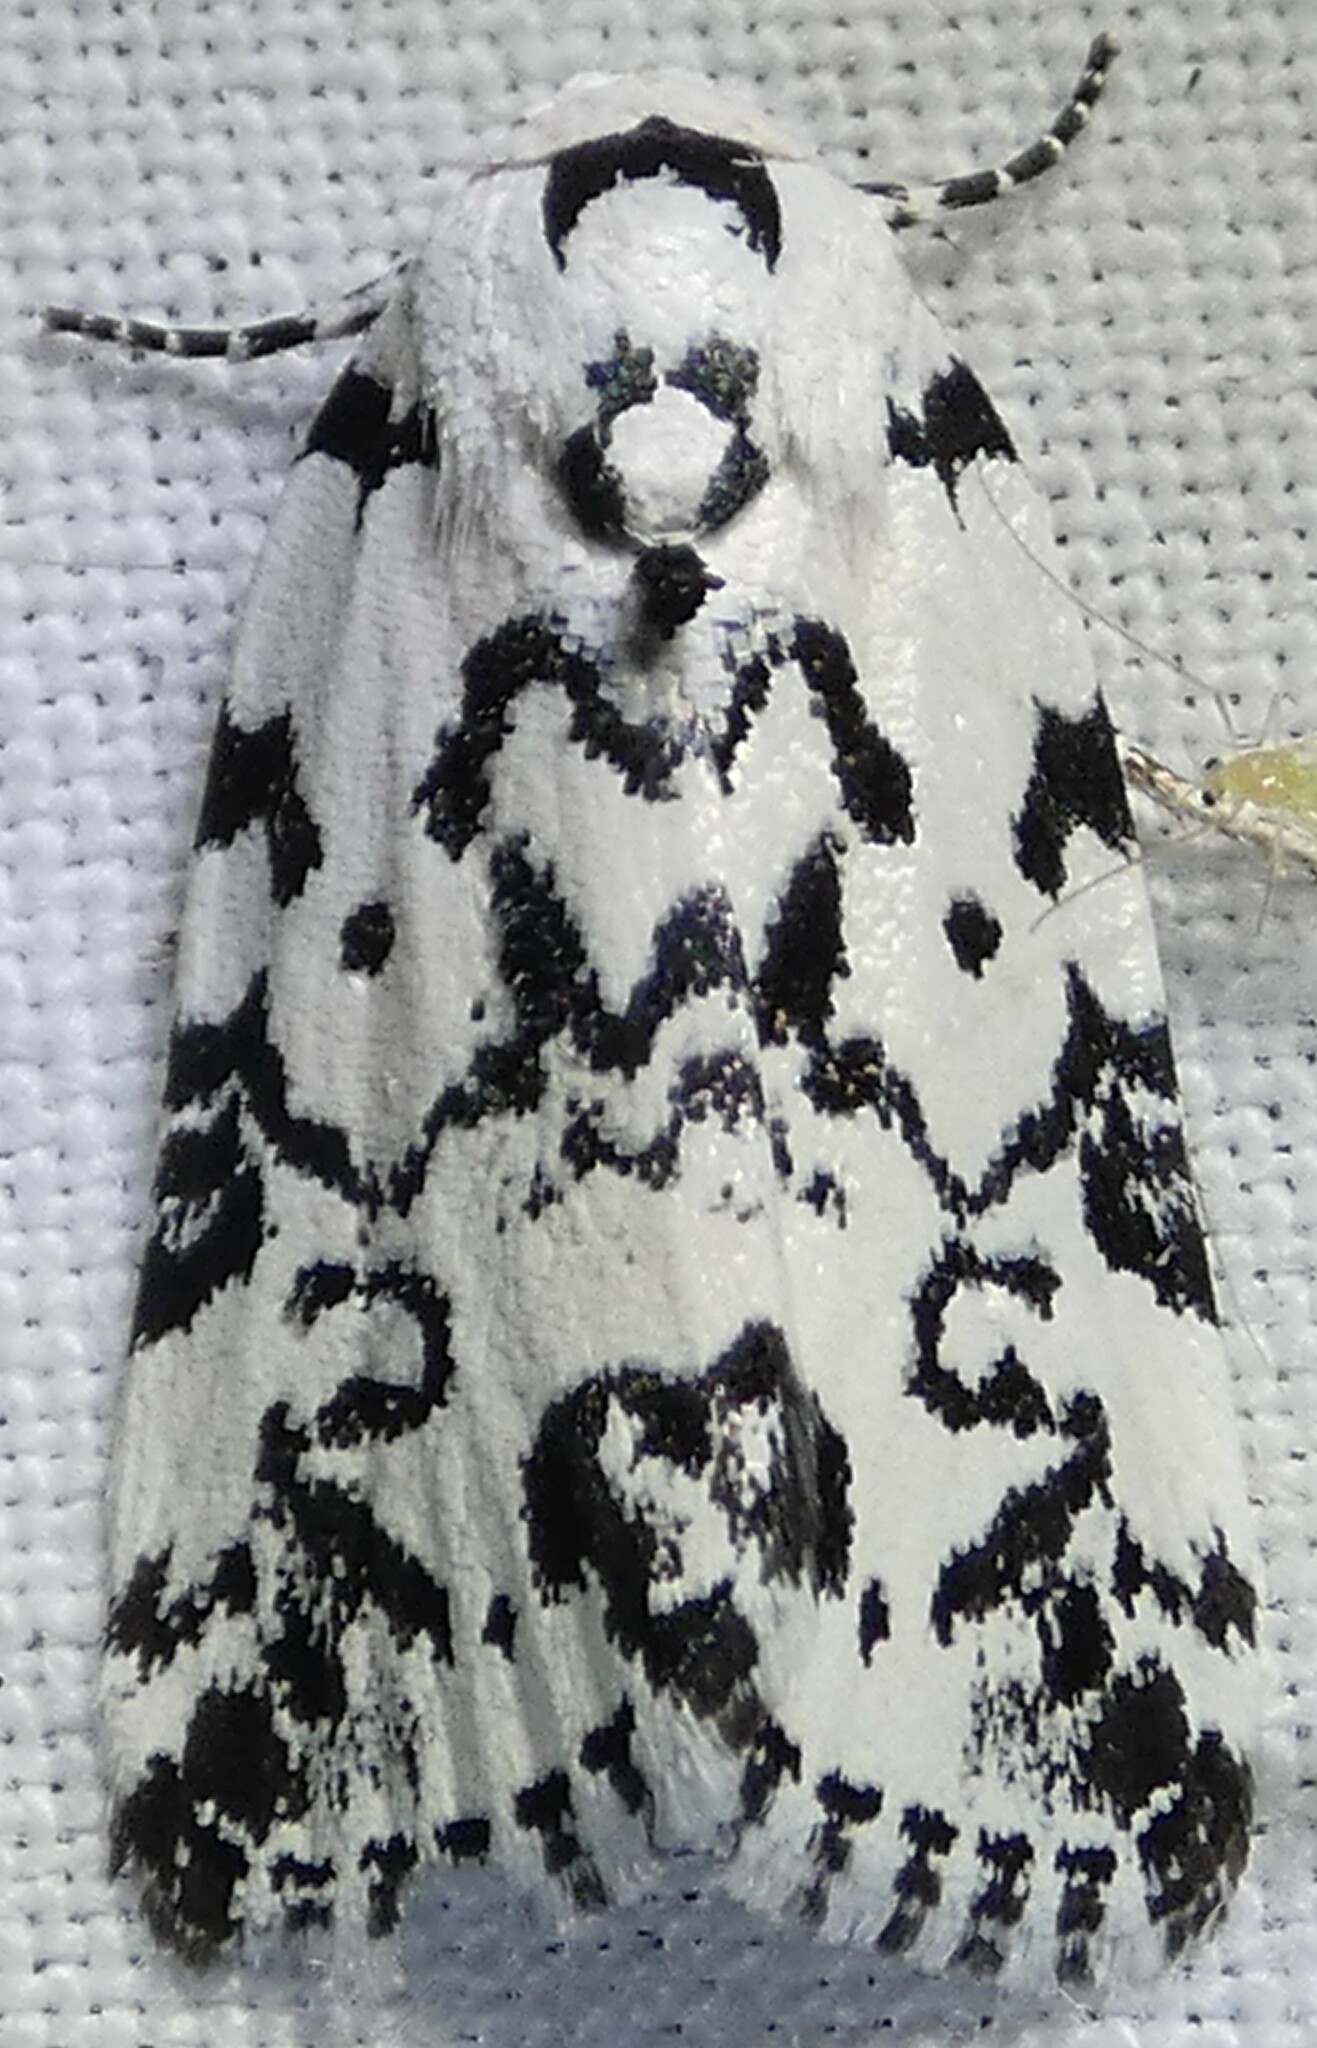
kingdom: Animalia
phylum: Arthropoda
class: Insecta
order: Lepidoptera
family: Noctuidae
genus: Polygrammate
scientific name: Polygrammate hebraeicum
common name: Hebrew moth
